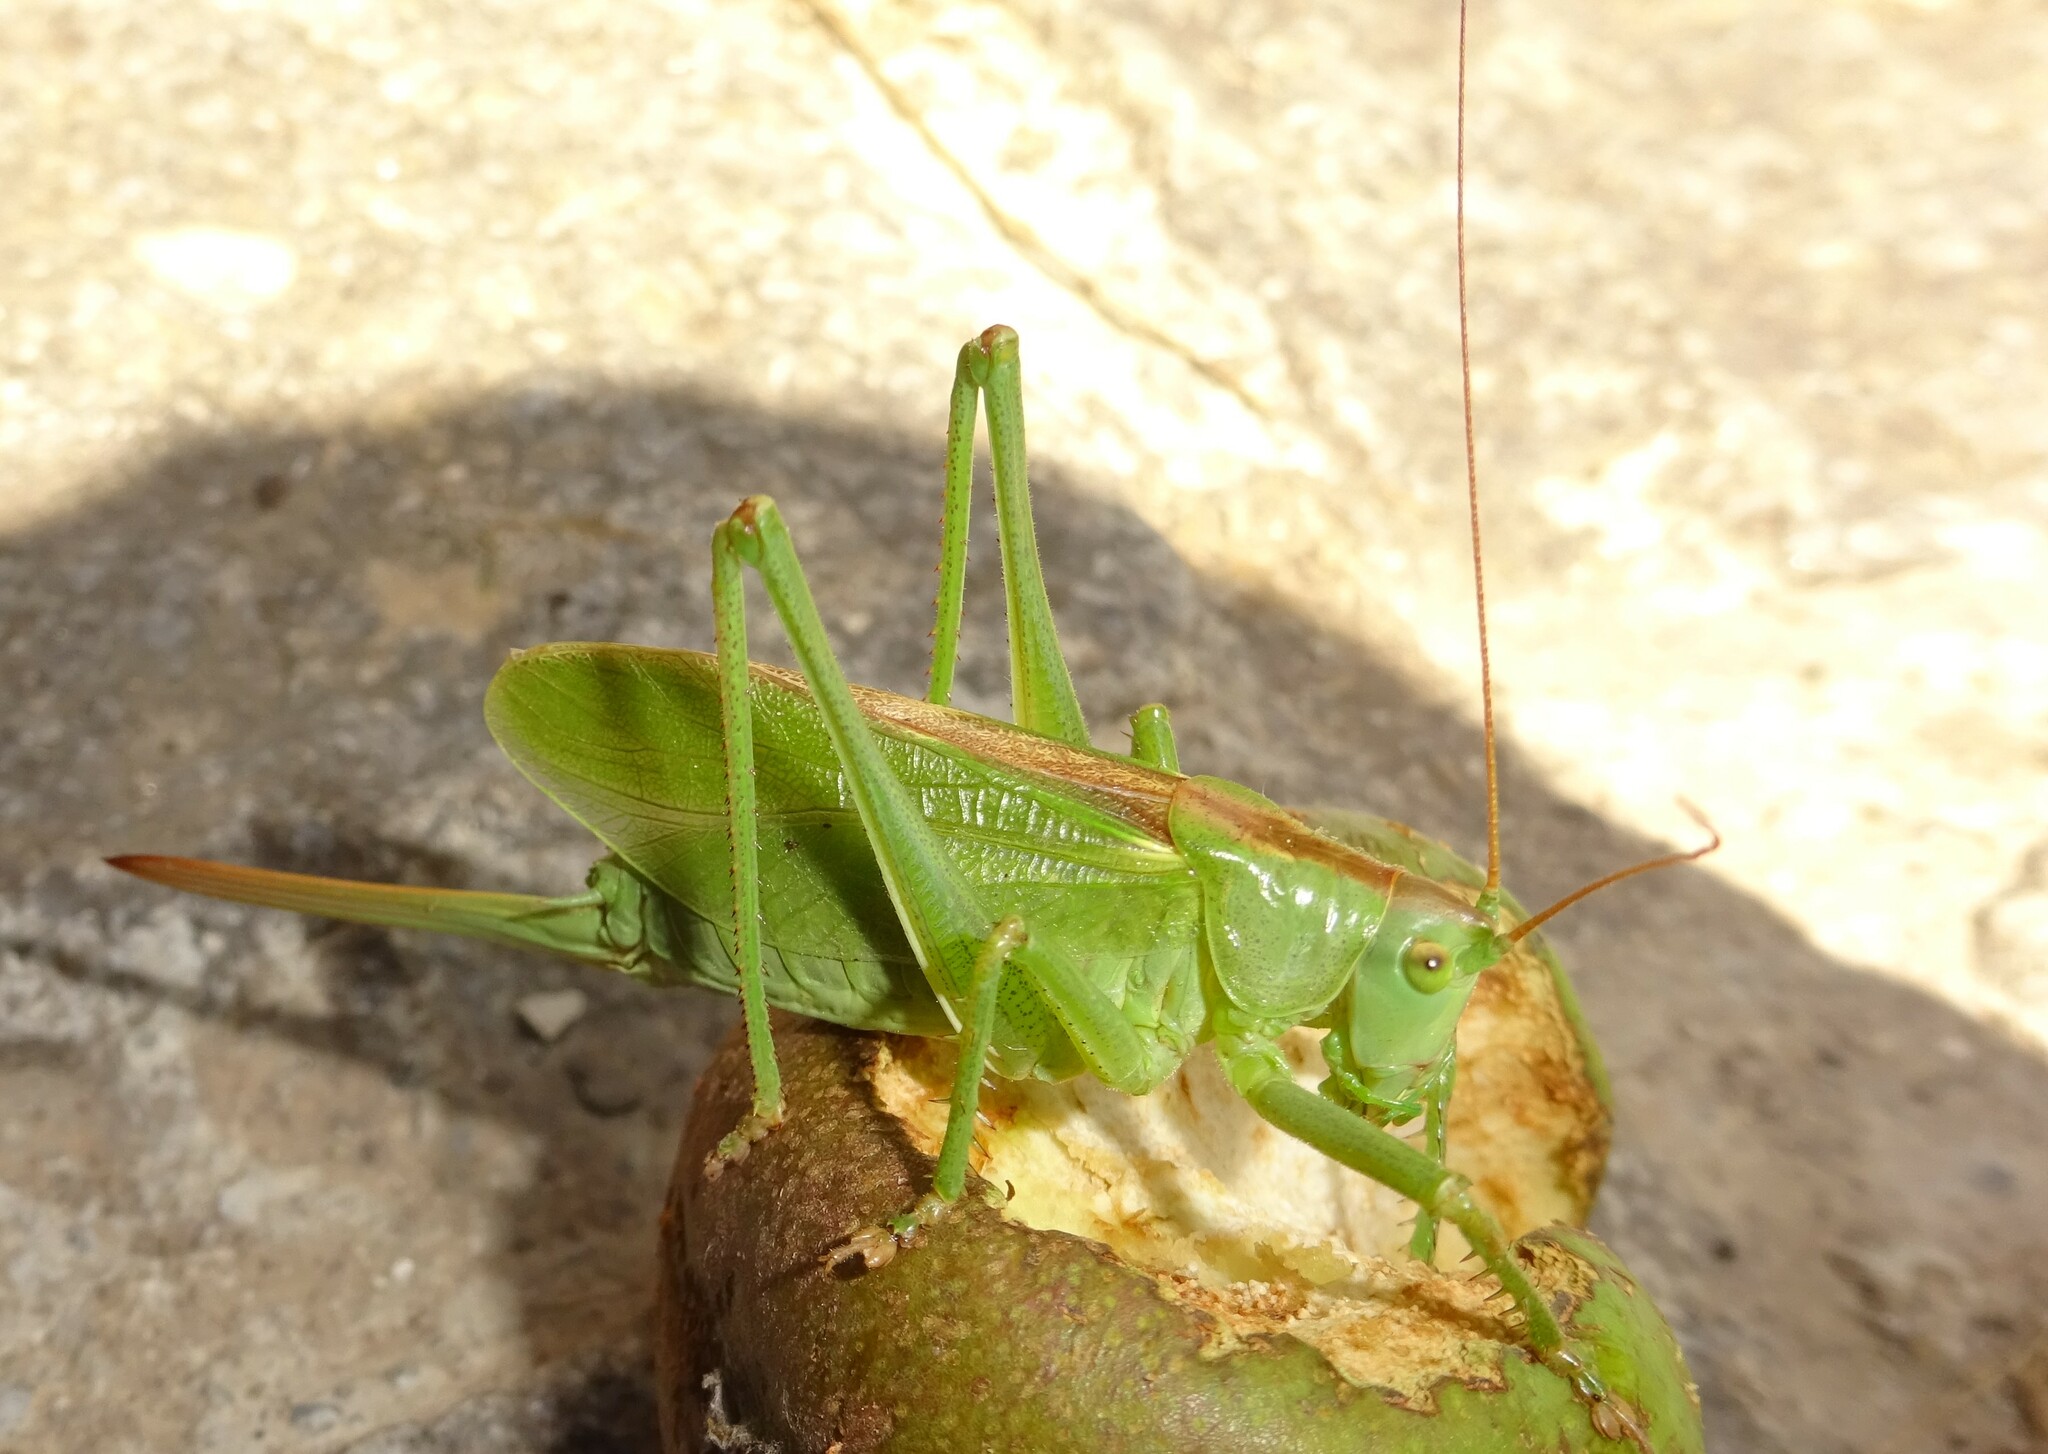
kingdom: Animalia
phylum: Arthropoda
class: Insecta
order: Orthoptera
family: Tettigoniidae
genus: Tettigonia
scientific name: Tettigonia cantans
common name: Upland green bush-cricket
